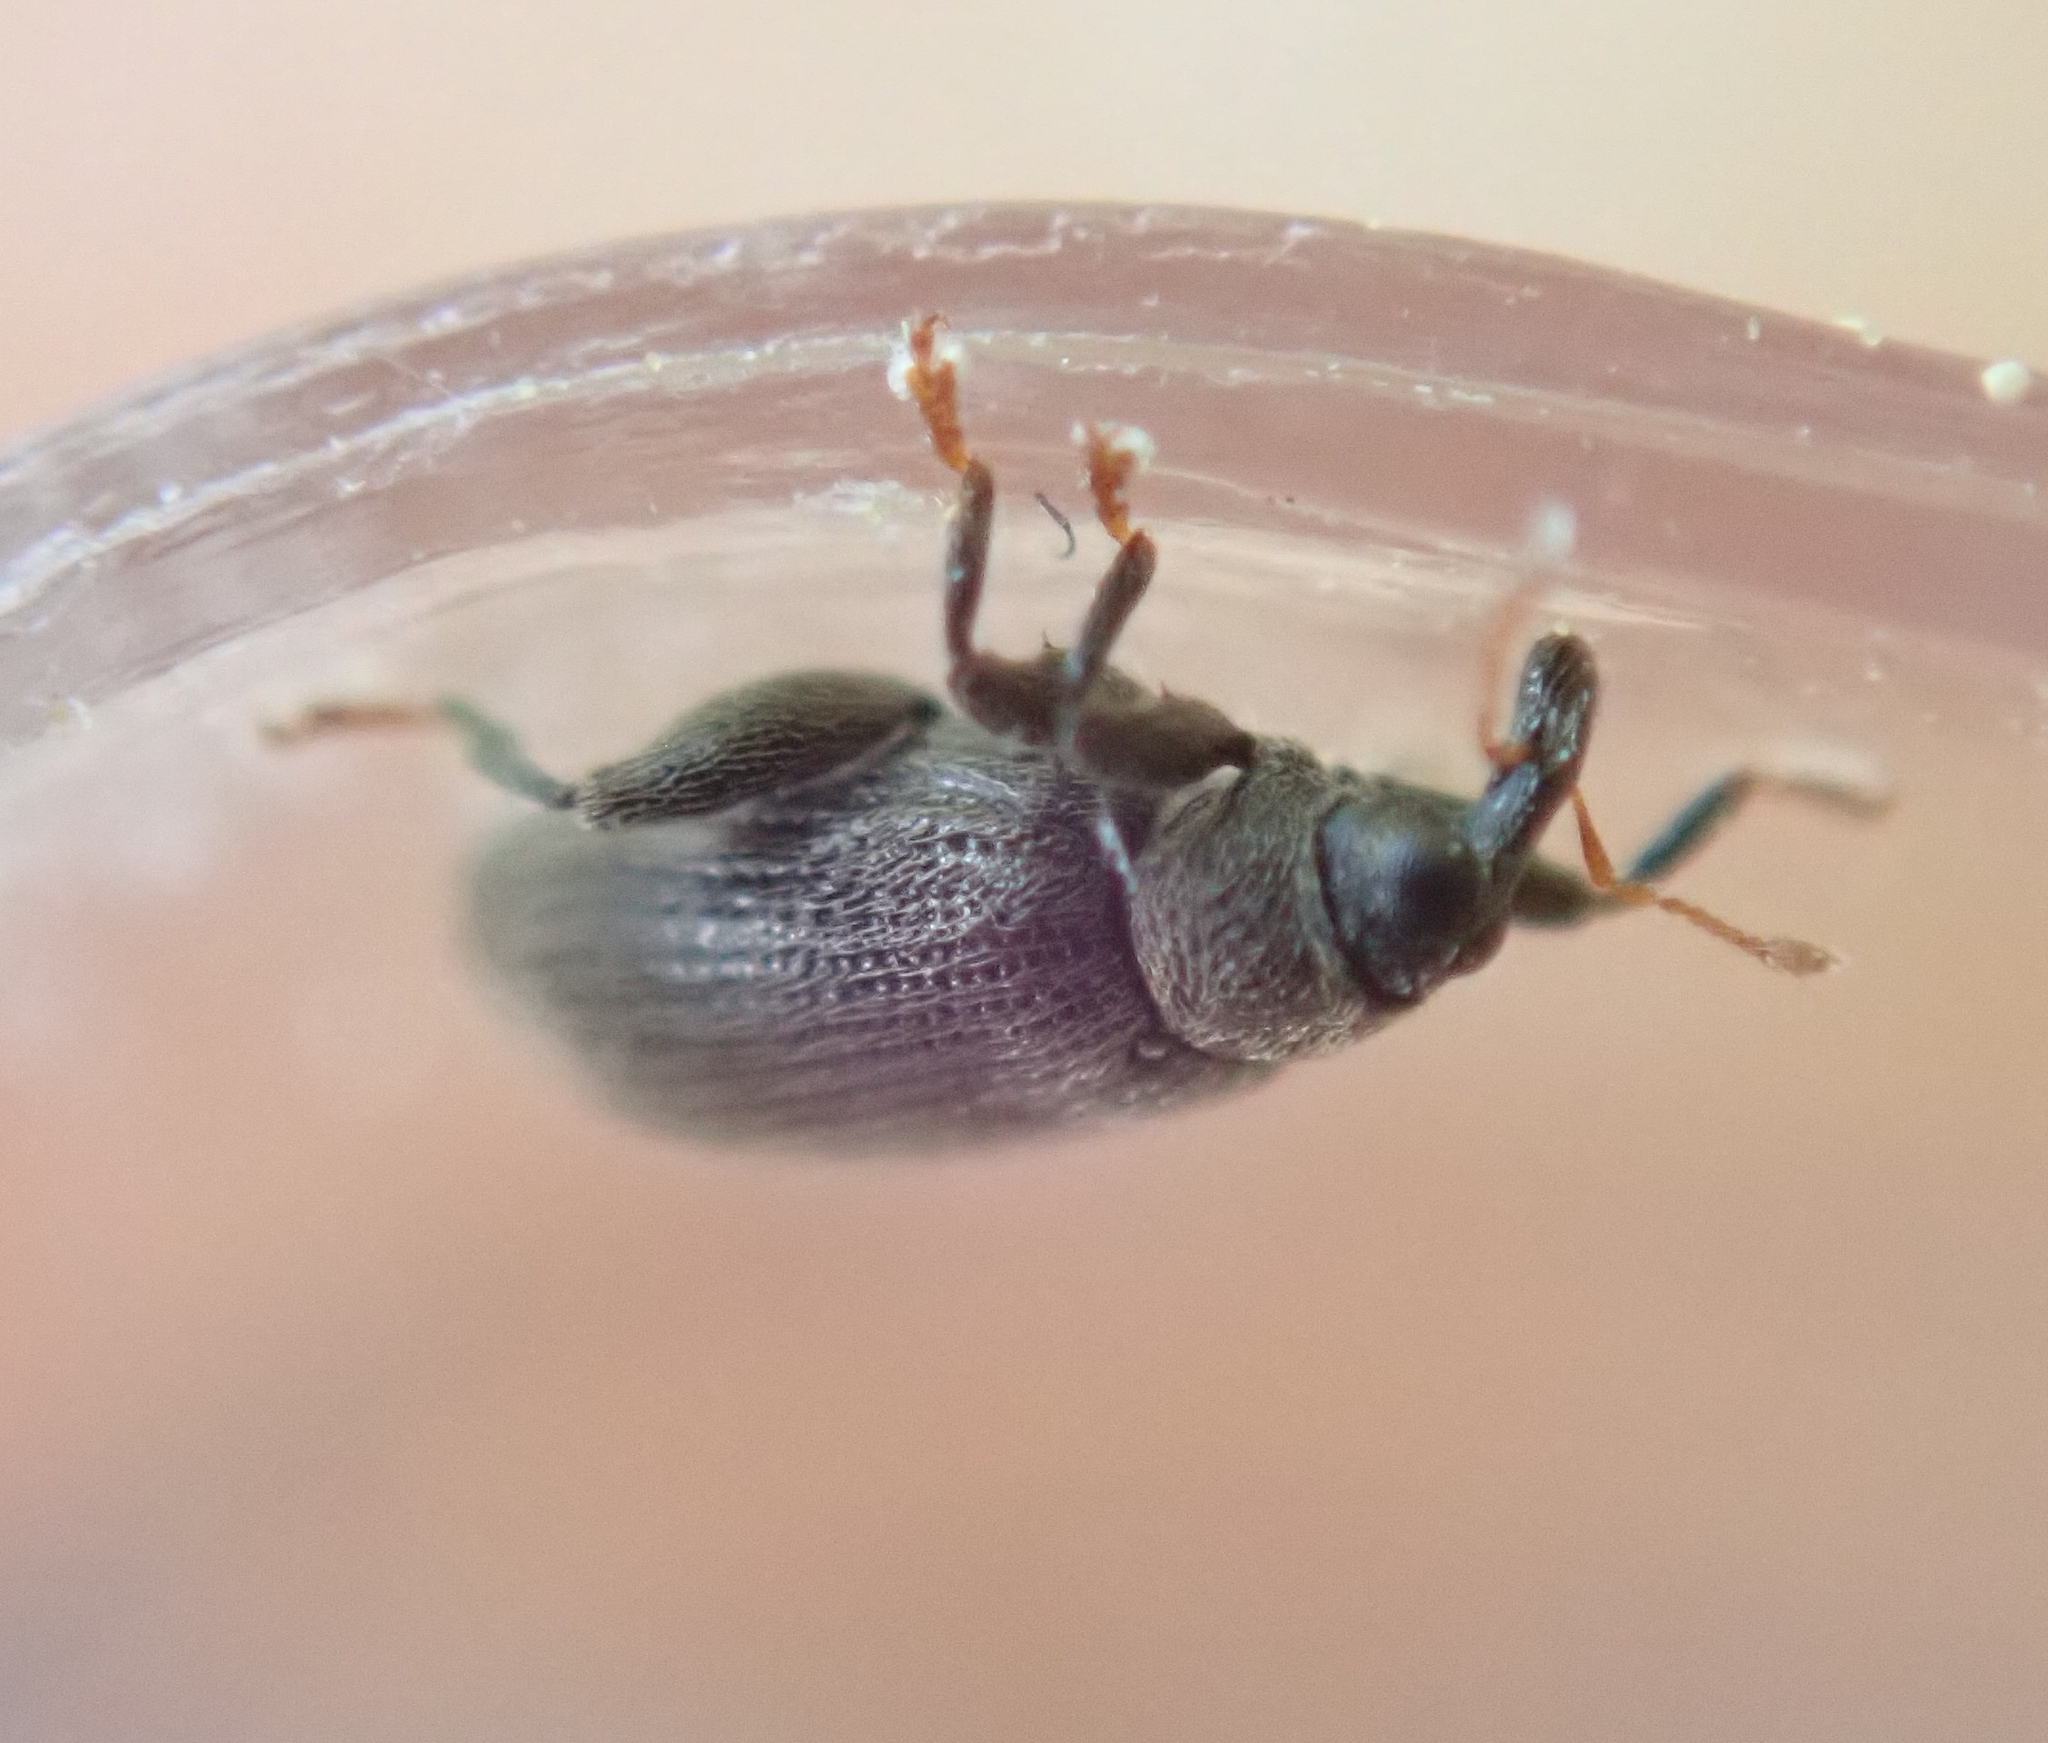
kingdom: Animalia
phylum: Arthropoda
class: Insecta
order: Coleoptera
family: Curculionidae
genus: Orchestes
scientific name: Orchestes fagi
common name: Beech leaf miner
